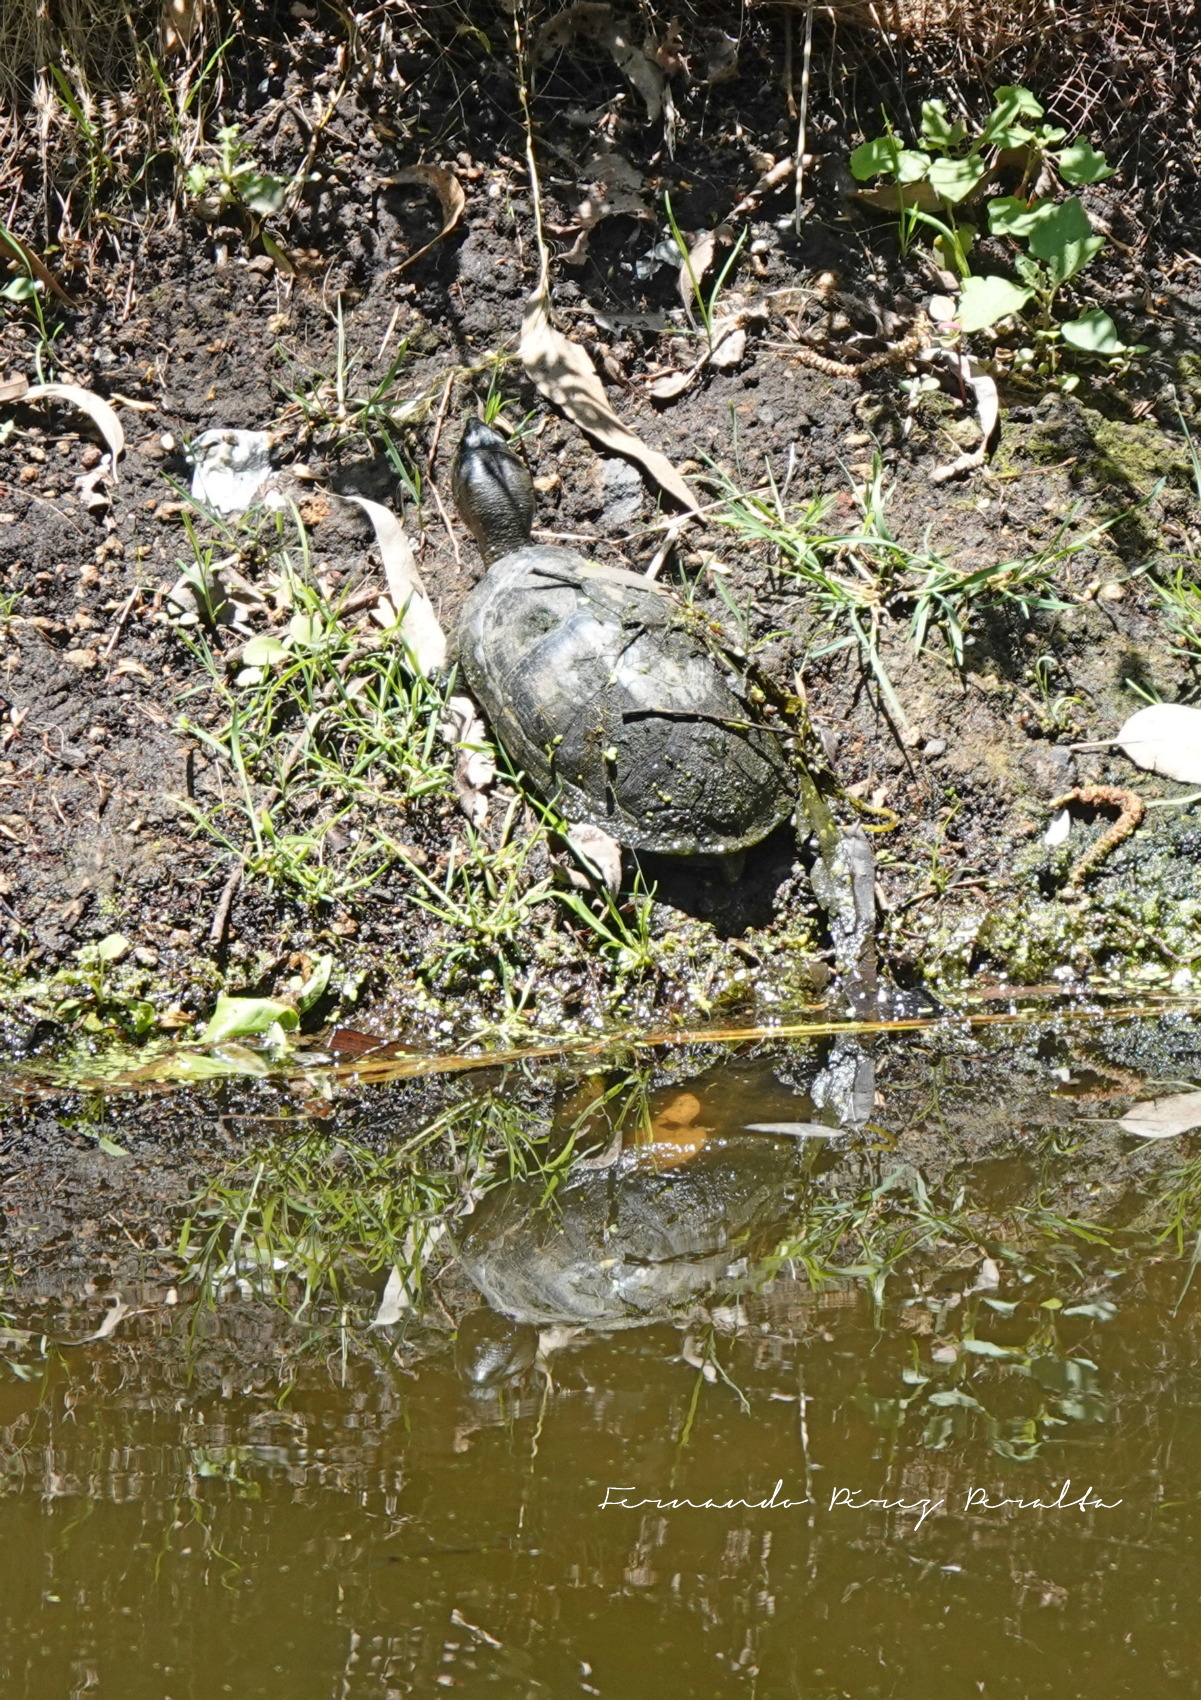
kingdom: Animalia
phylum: Chordata
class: Testudines
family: Kinosternidae
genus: Kinosternon
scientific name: Kinosternon integrum
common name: Mexican mud turtle
